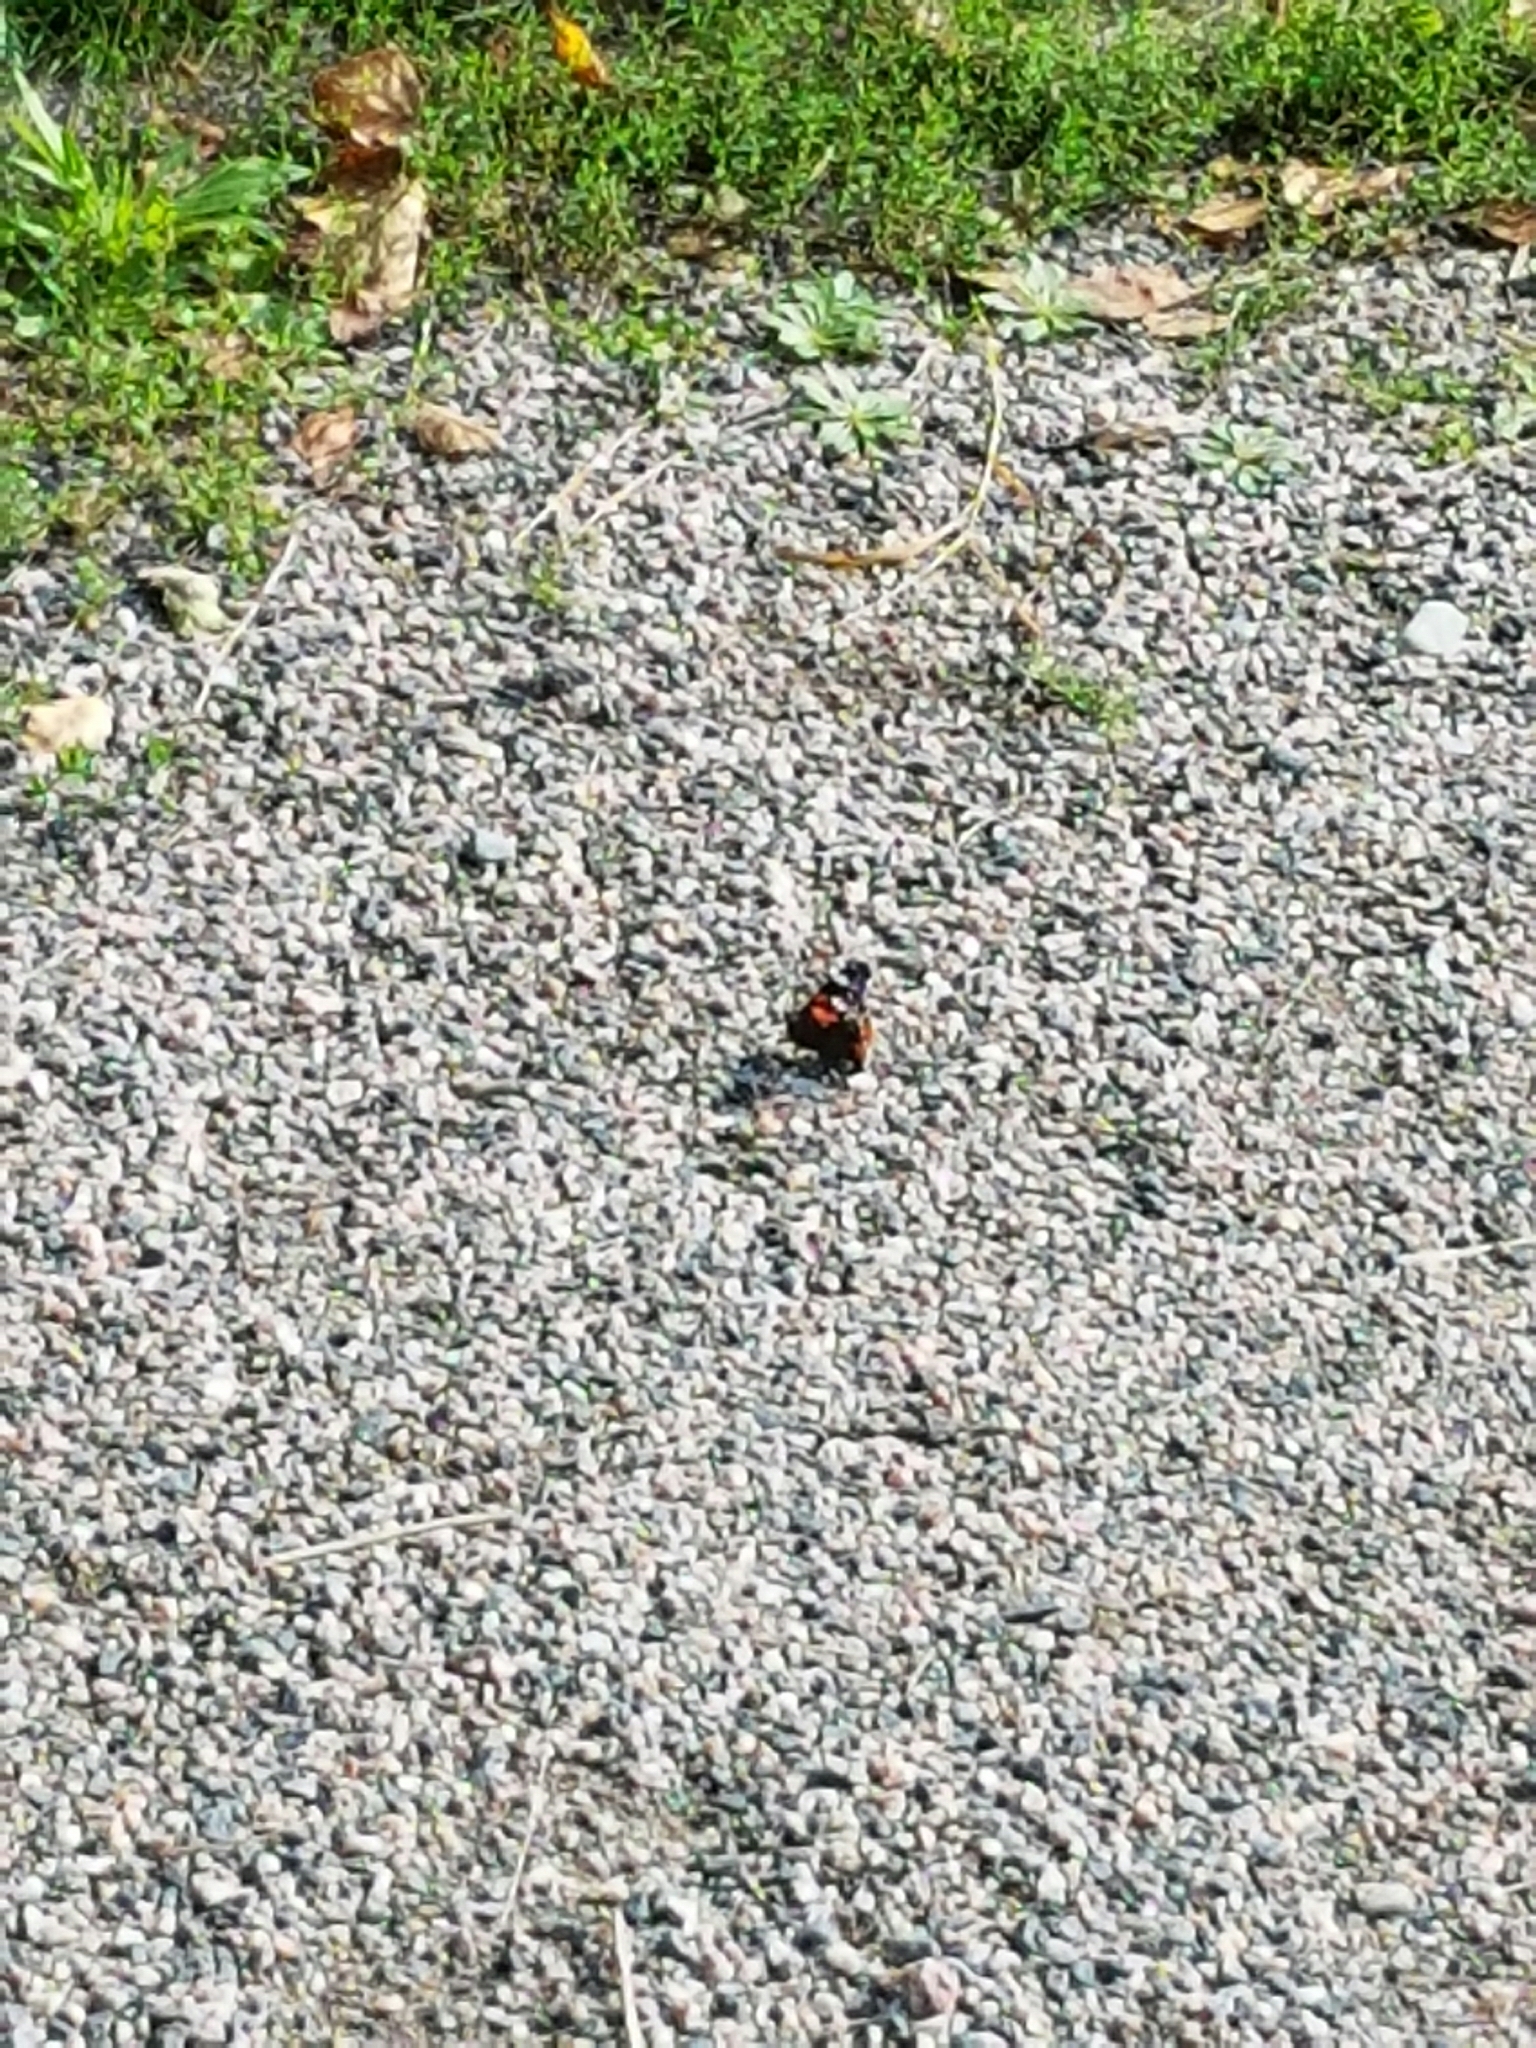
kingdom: Animalia
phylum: Arthropoda
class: Insecta
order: Lepidoptera
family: Nymphalidae
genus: Vanessa
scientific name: Vanessa atalanta
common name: Red admiral
